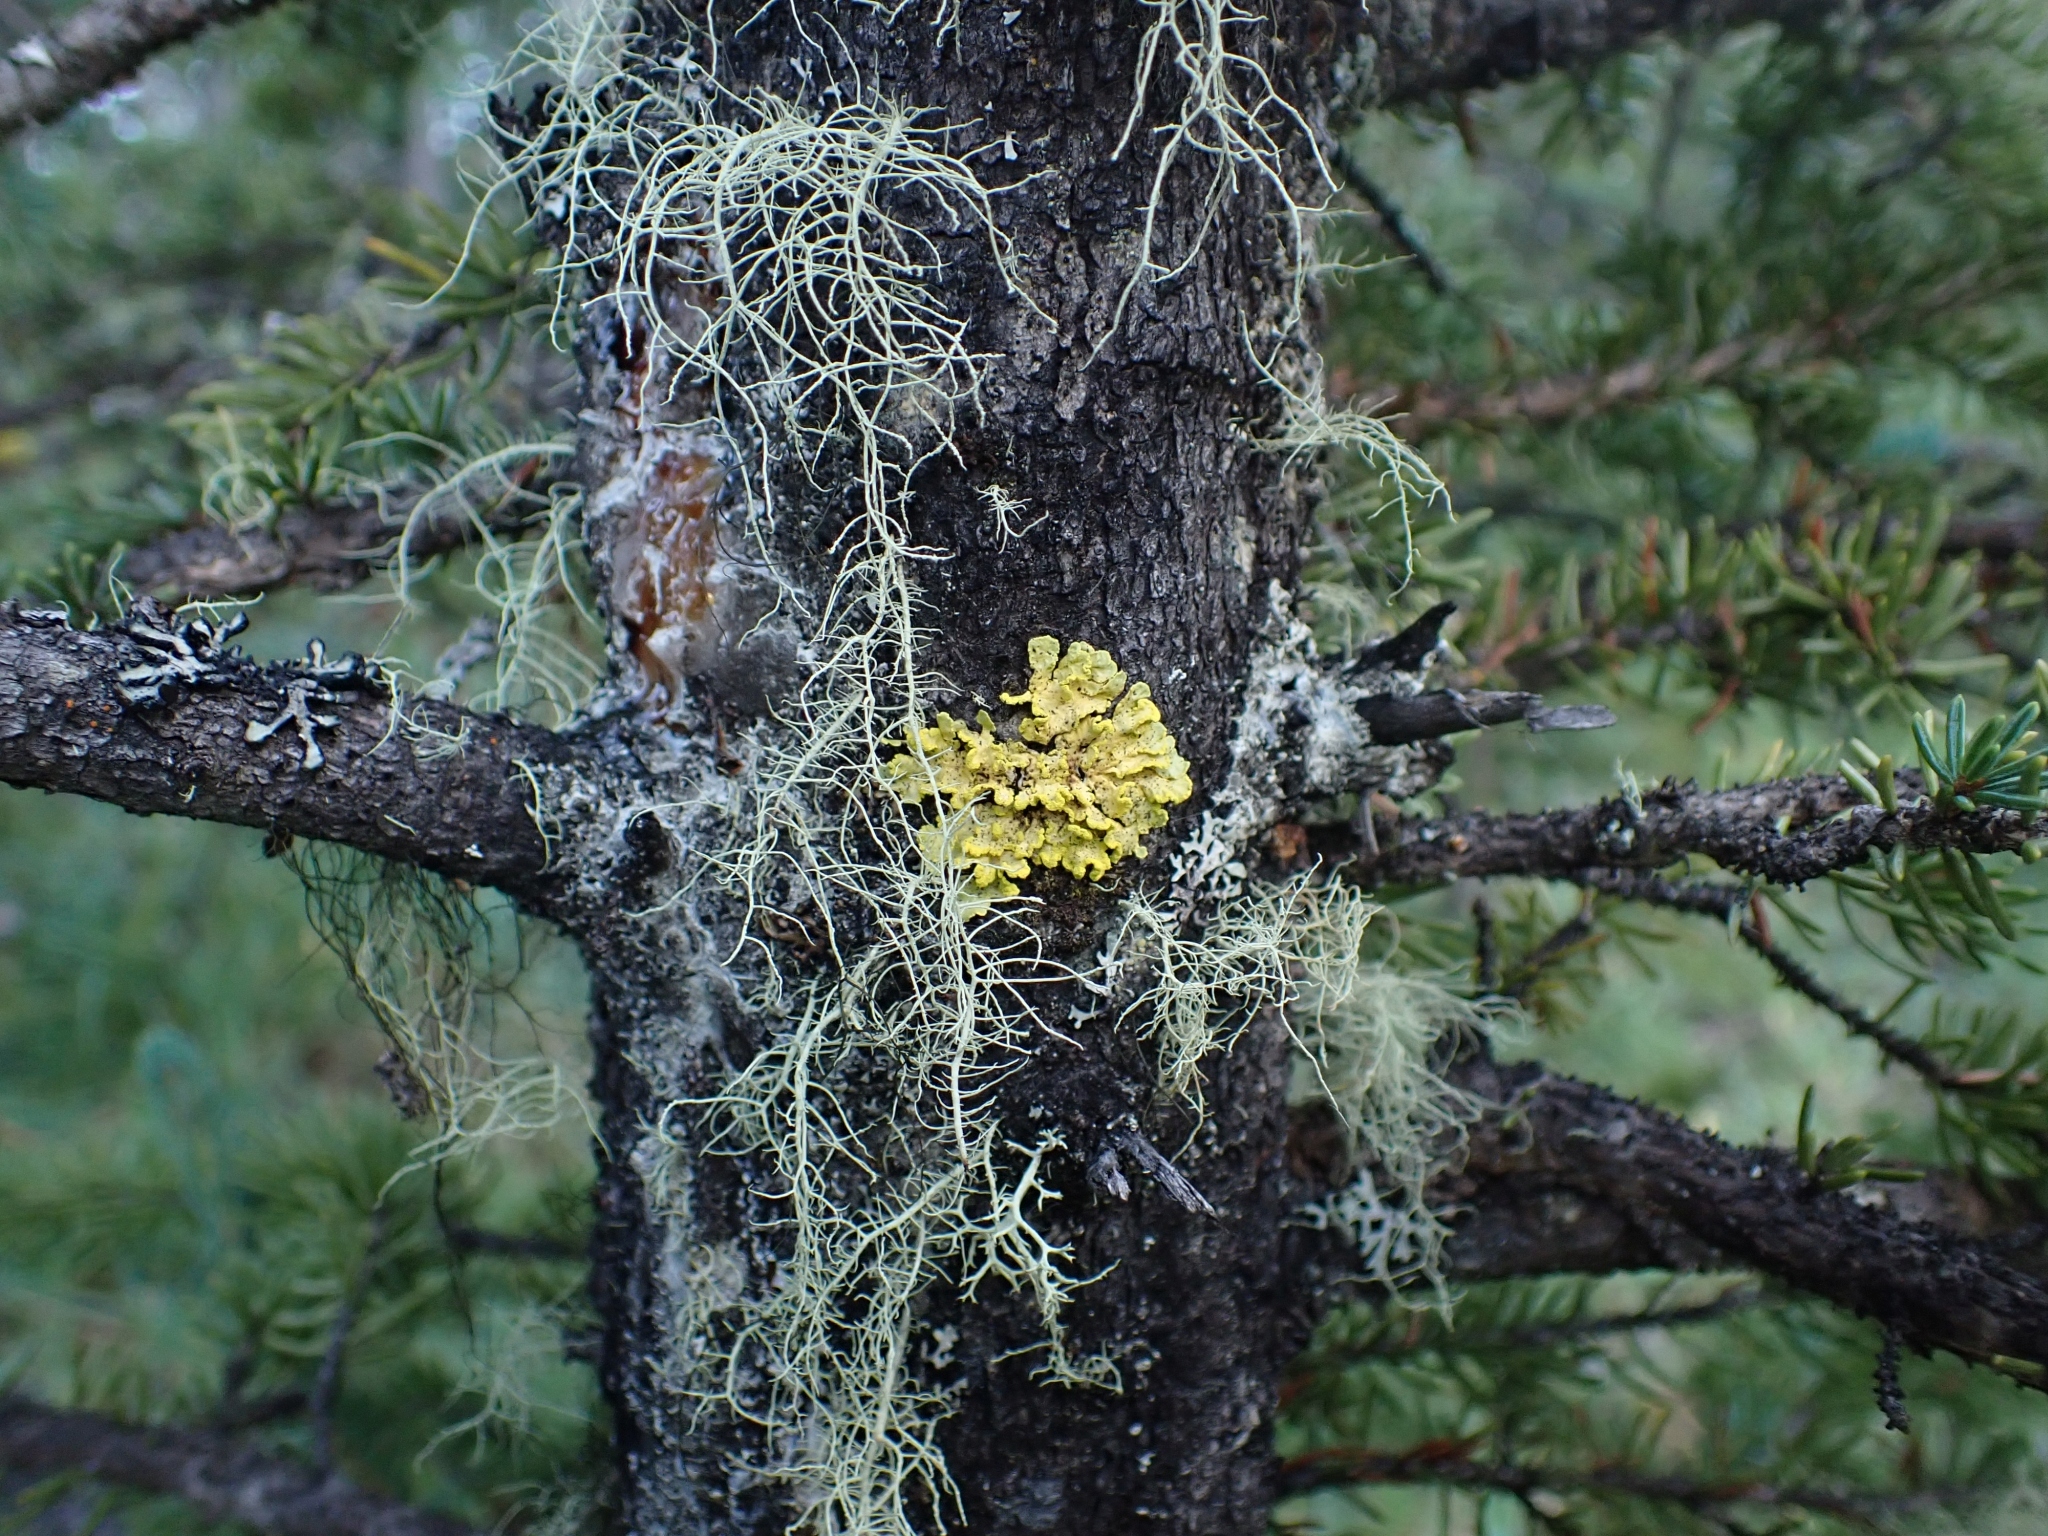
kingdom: Fungi
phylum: Ascomycota
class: Lecanoromycetes
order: Lecanorales
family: Parmeliaceae
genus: Vulpicida
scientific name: Vulpicida pinastri
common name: Powdered sunshine lichen
